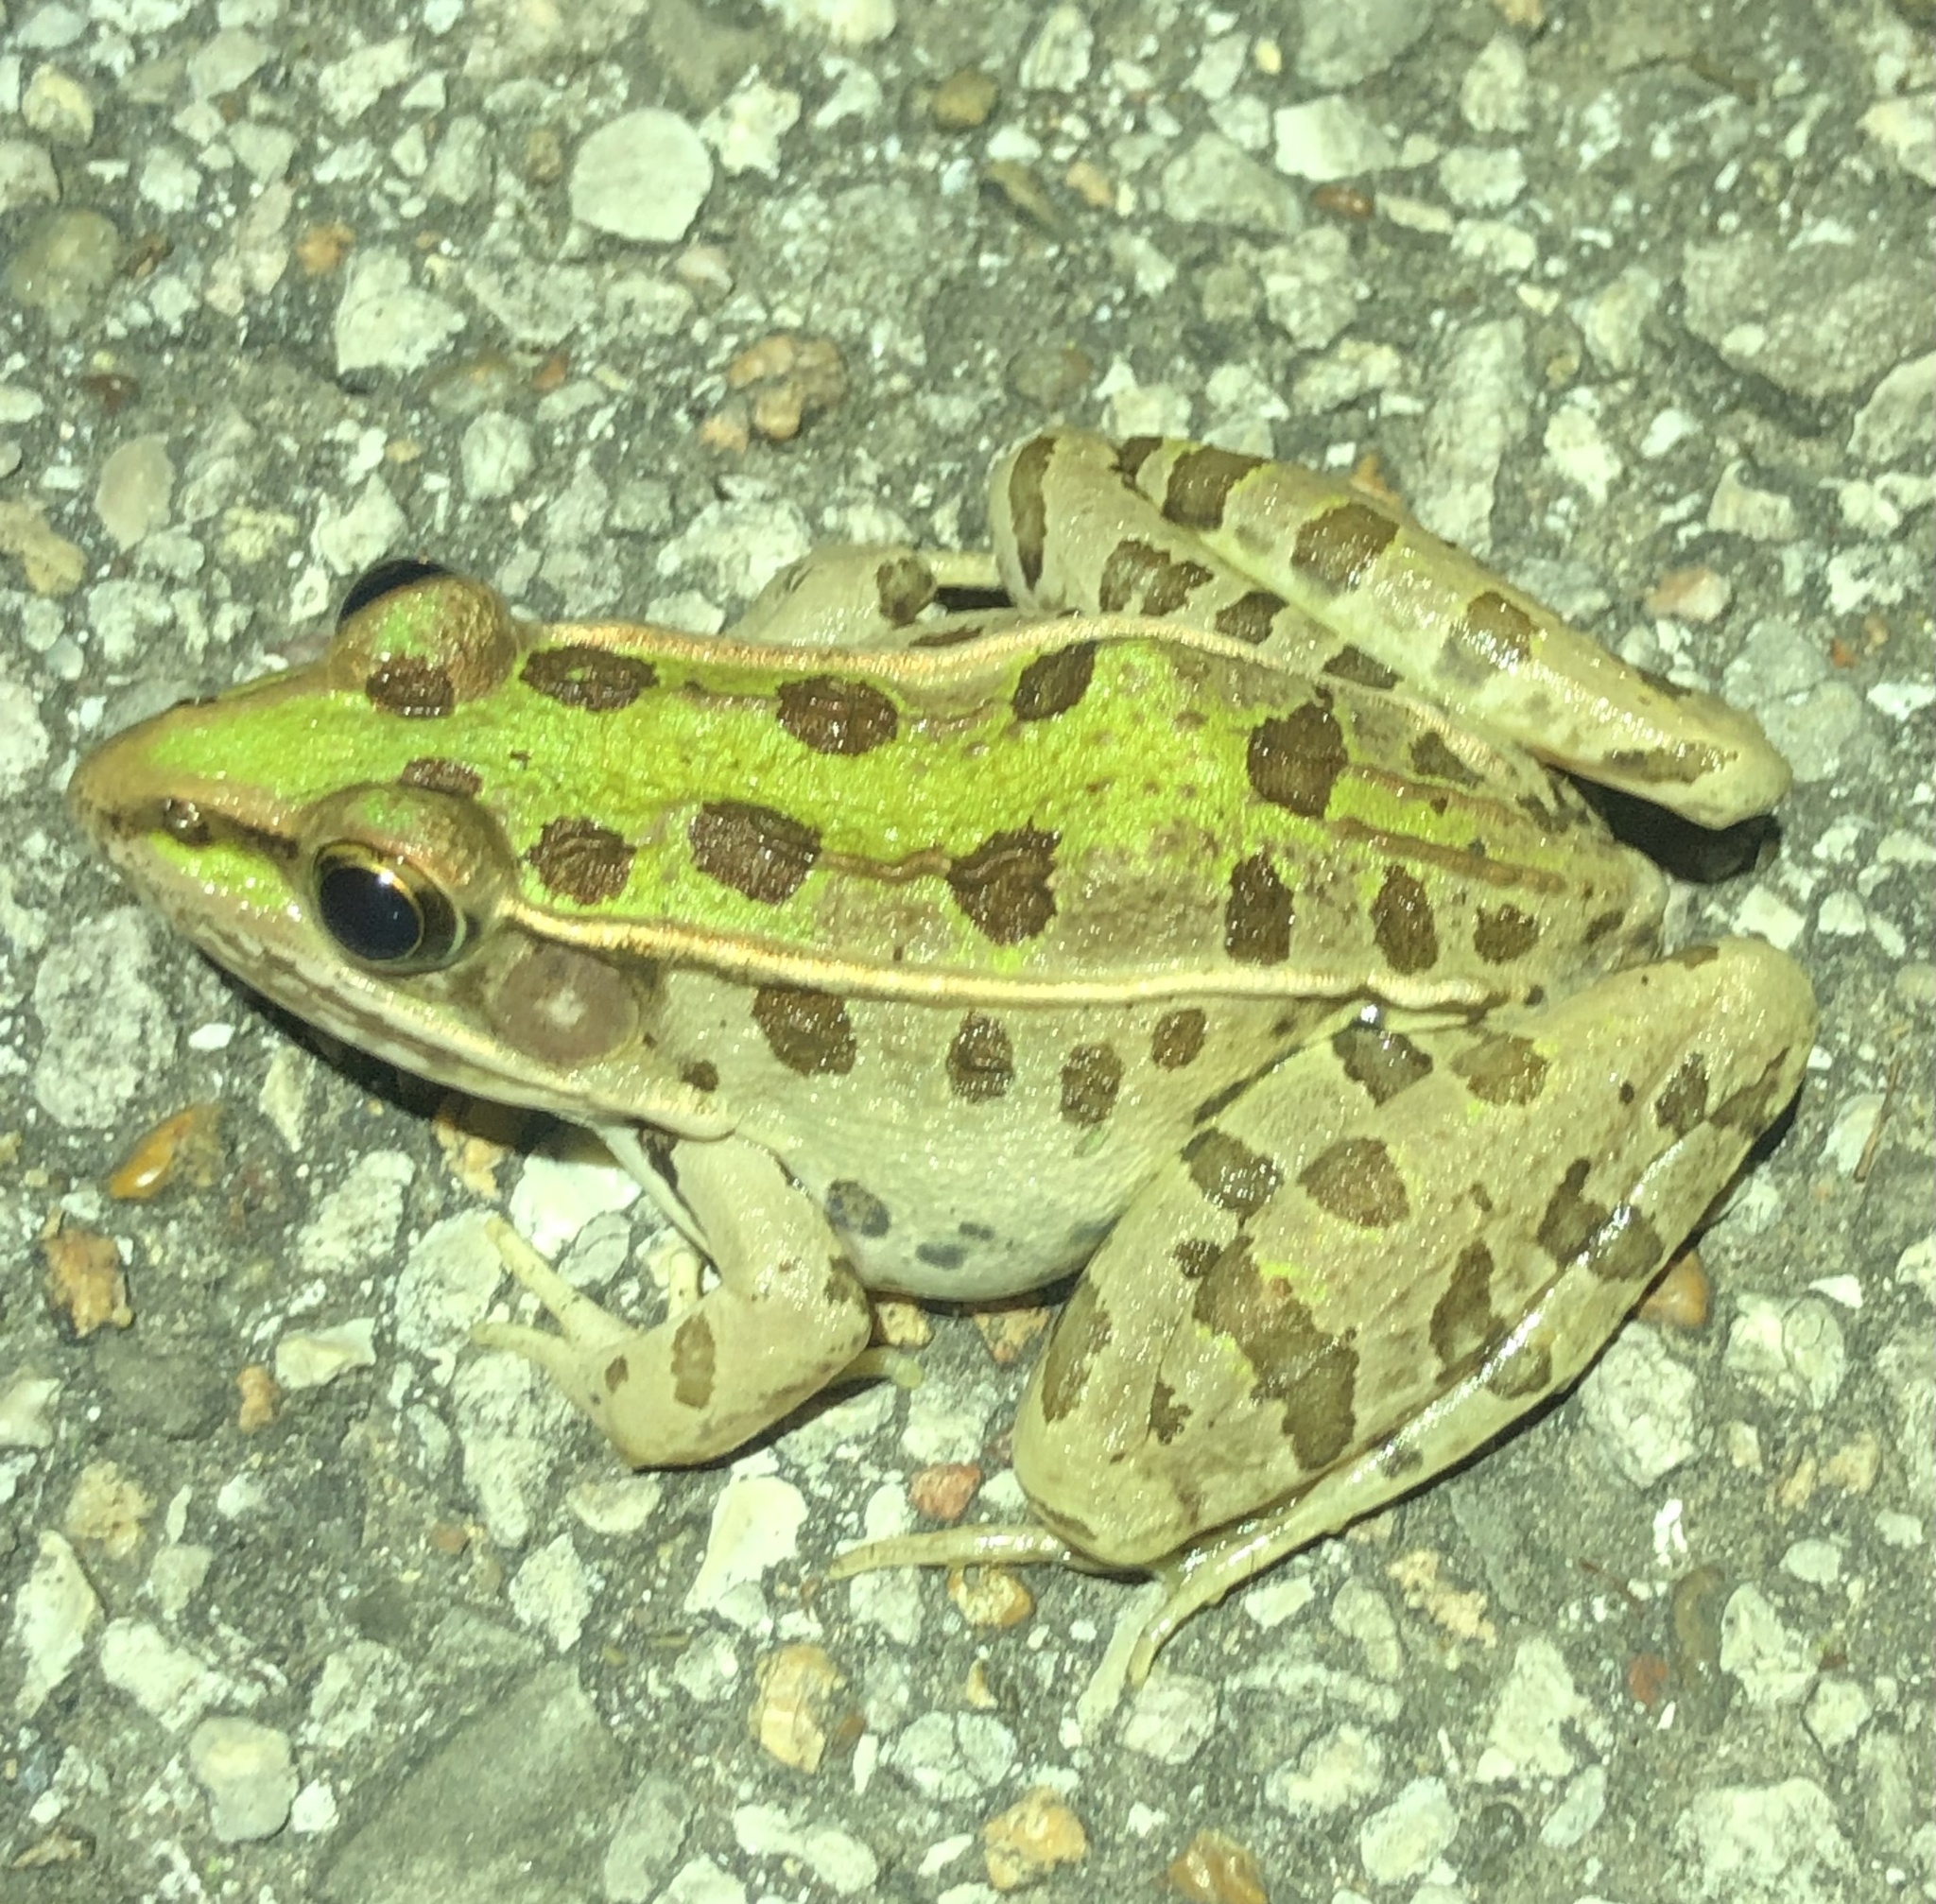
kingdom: Animalia
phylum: Chordata
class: Amphibia
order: Anura
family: Ranidae
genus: Lithobates
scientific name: Lithobates sphenocephalus
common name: Southern leopard frog
